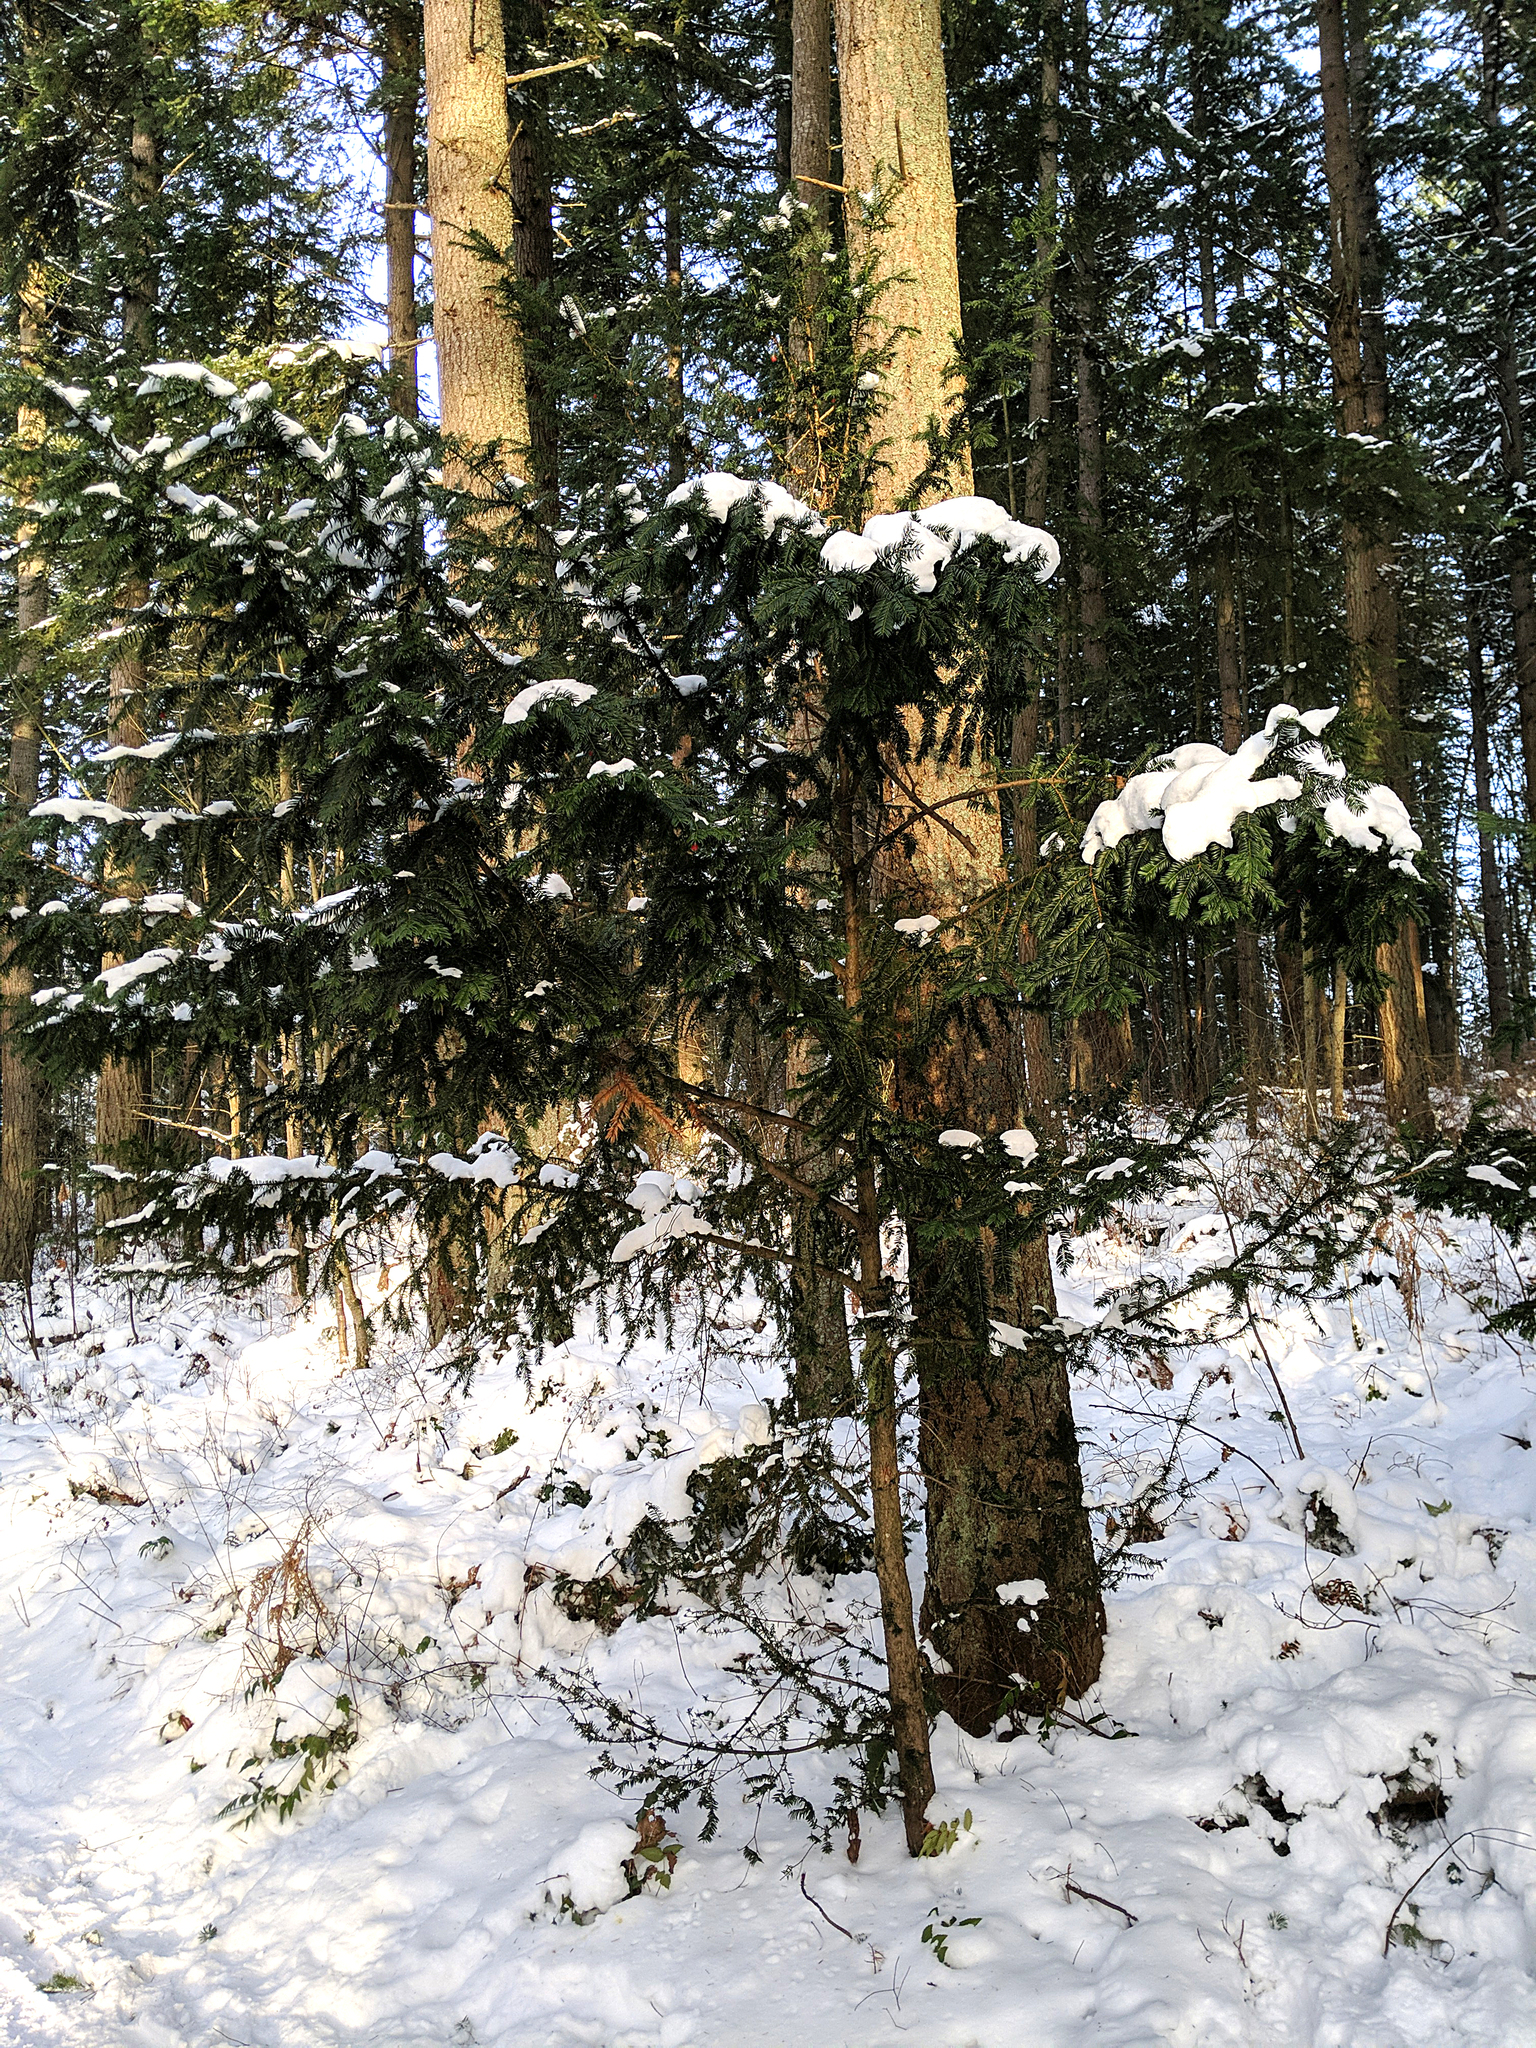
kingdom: Plantae
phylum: Tracheophyta
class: Pinopsida
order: Pinales
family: Taxaceae
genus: Taxus
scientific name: Taxus brevifolia
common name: Pacific yew
